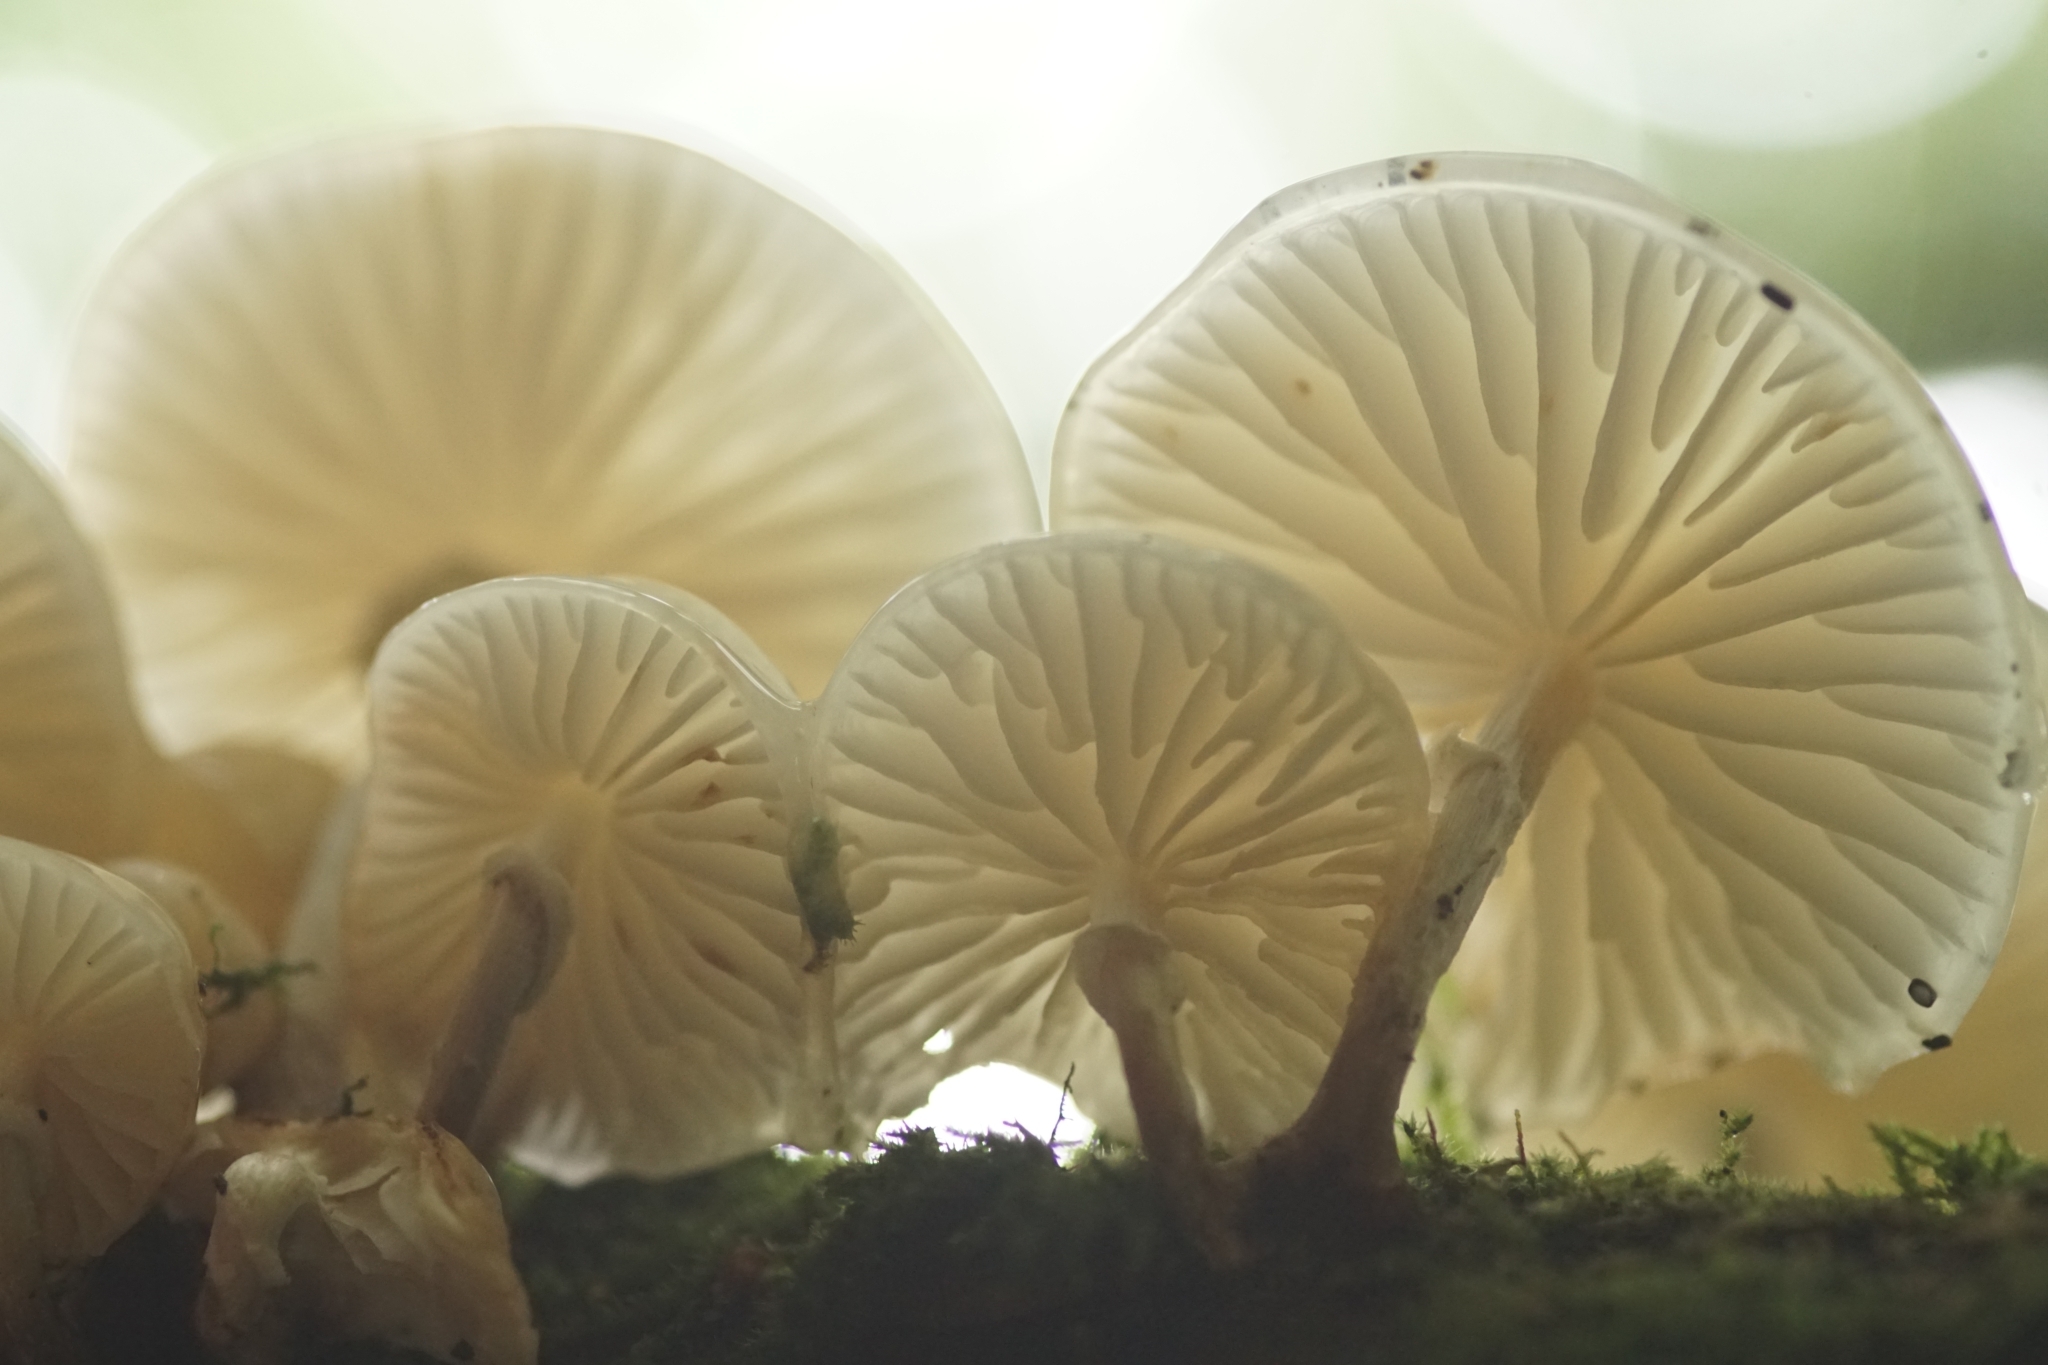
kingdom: Fungi
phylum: Basidiomycota
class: Agaricomycetes
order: Agaricales
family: Physalacriaceae
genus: Mucidula
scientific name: Mucidula mucida
